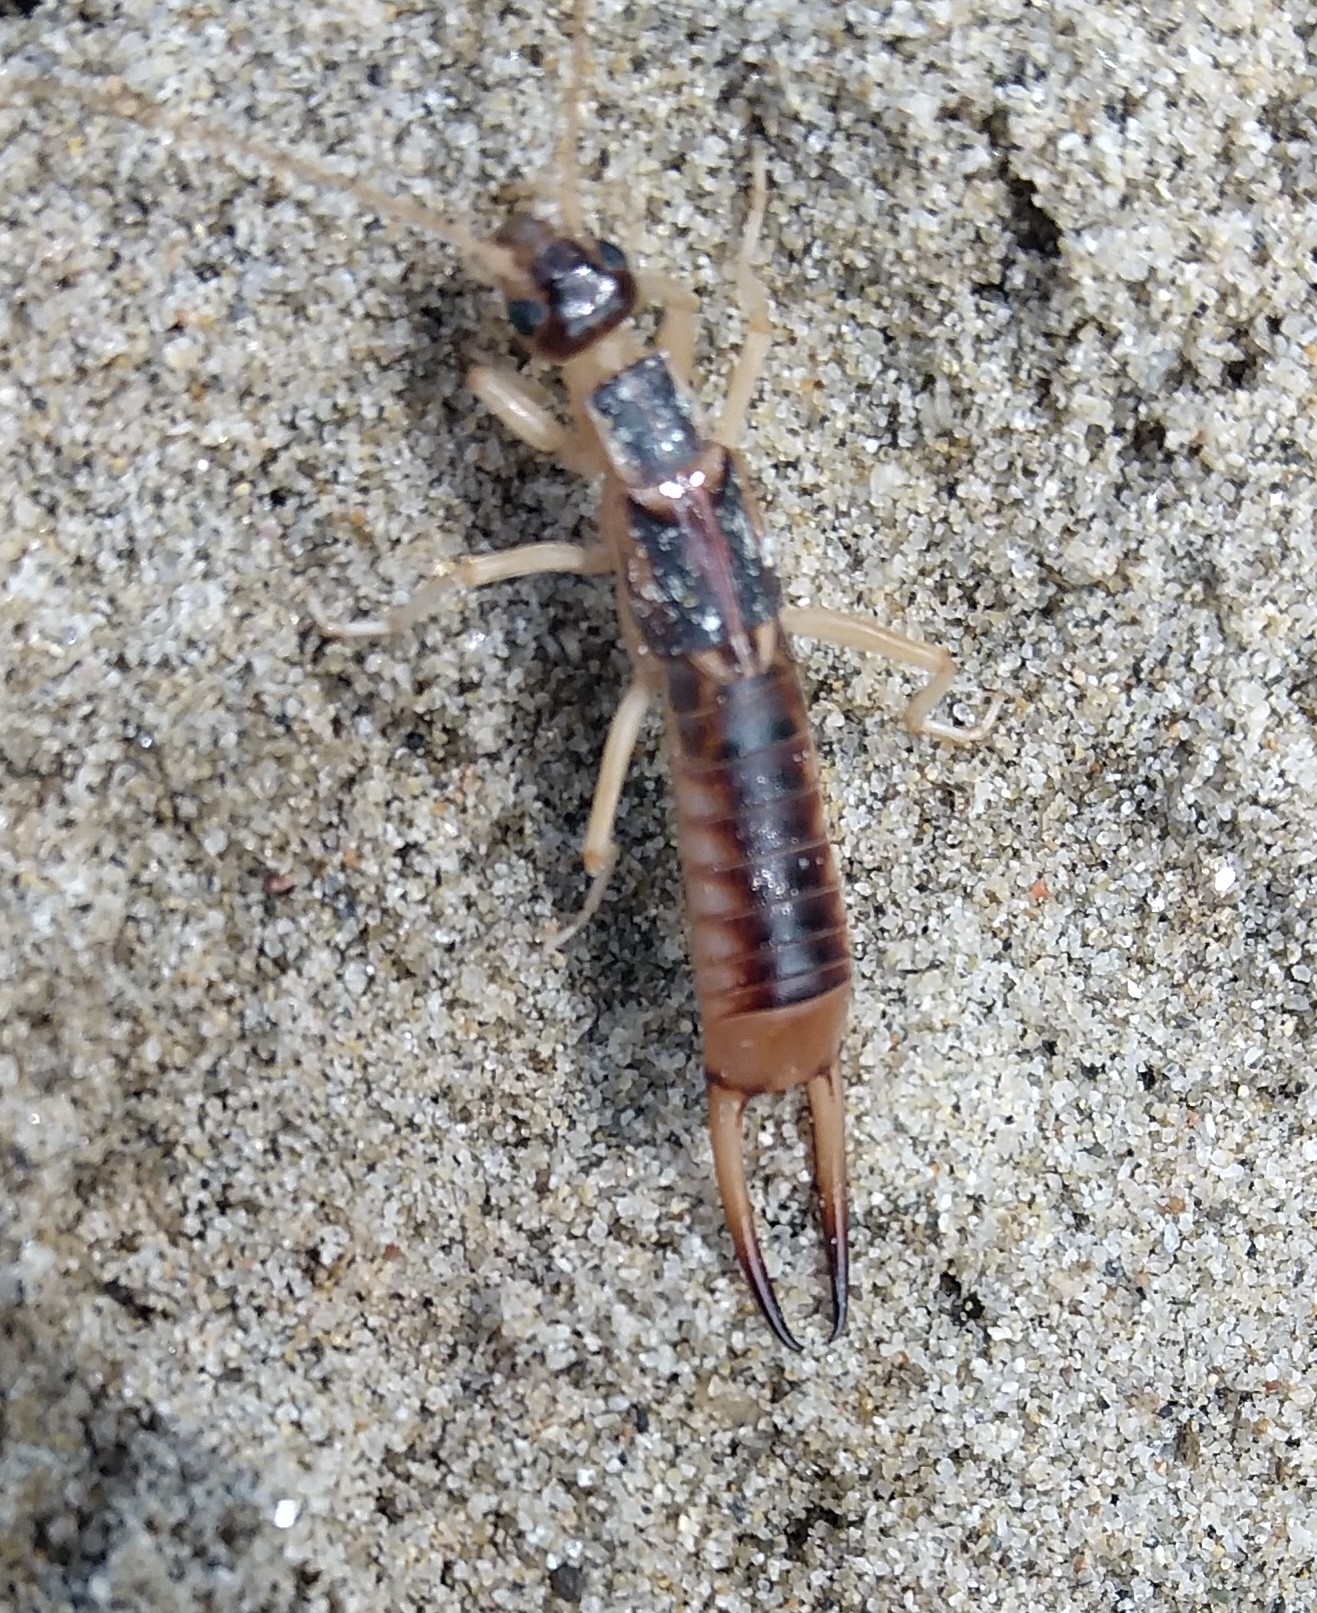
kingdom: Animalia
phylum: Arthropoda
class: Insecta
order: Dermaptera
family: Labiduridae
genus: Labidura
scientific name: Labidura riparia
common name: Striped earwig
